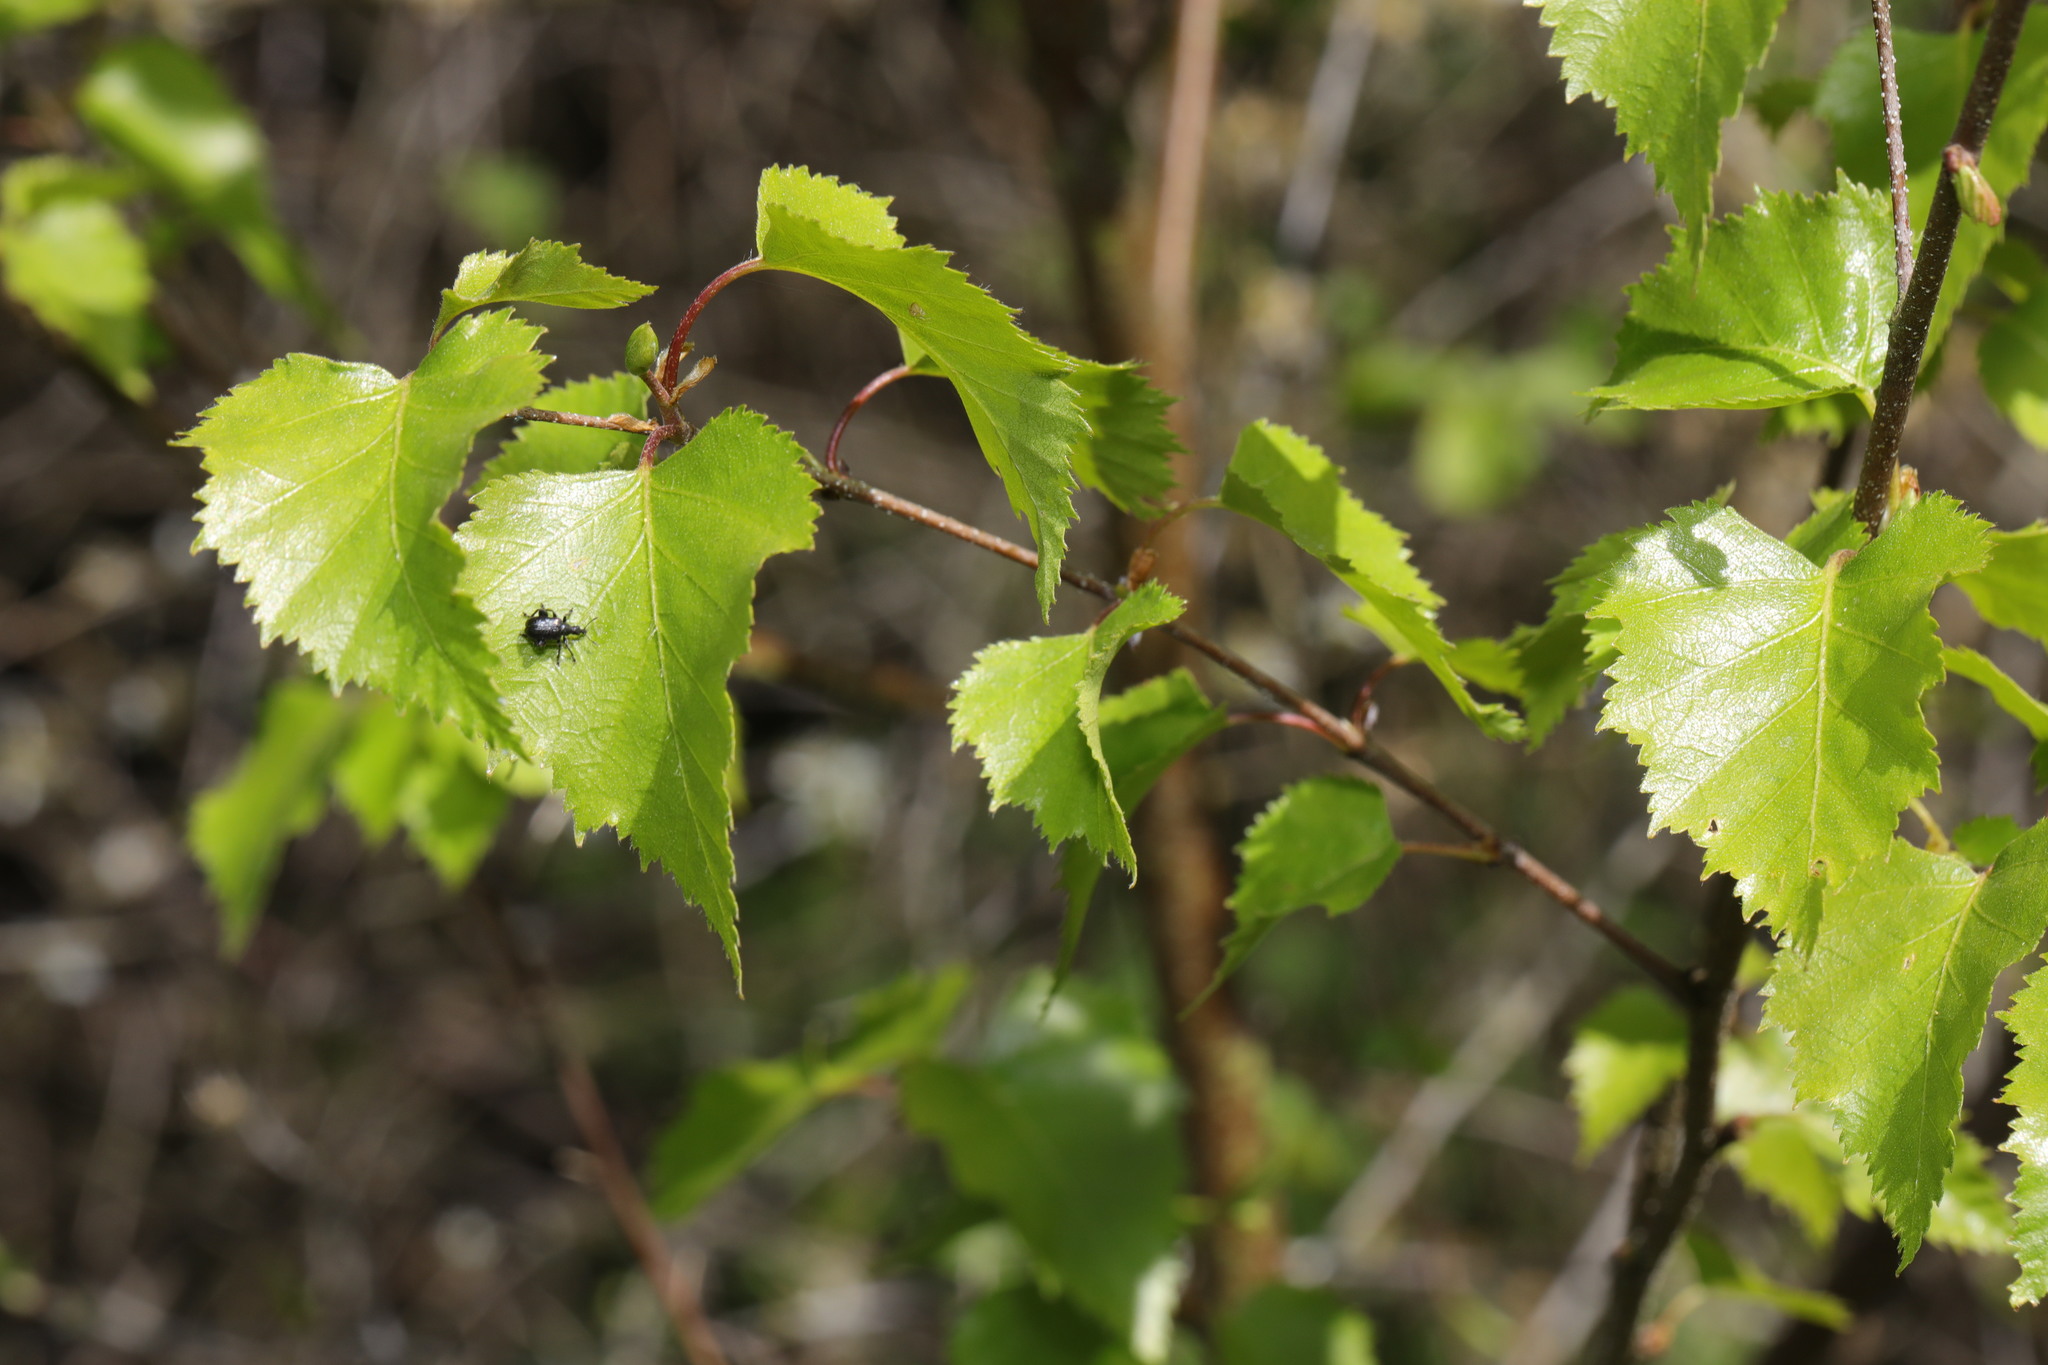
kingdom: Plantae
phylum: Tracheophyta
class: Magnoliopsida
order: Fagales
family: Betulaceae
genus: Betula
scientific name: Betula pendula
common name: Silver birch
